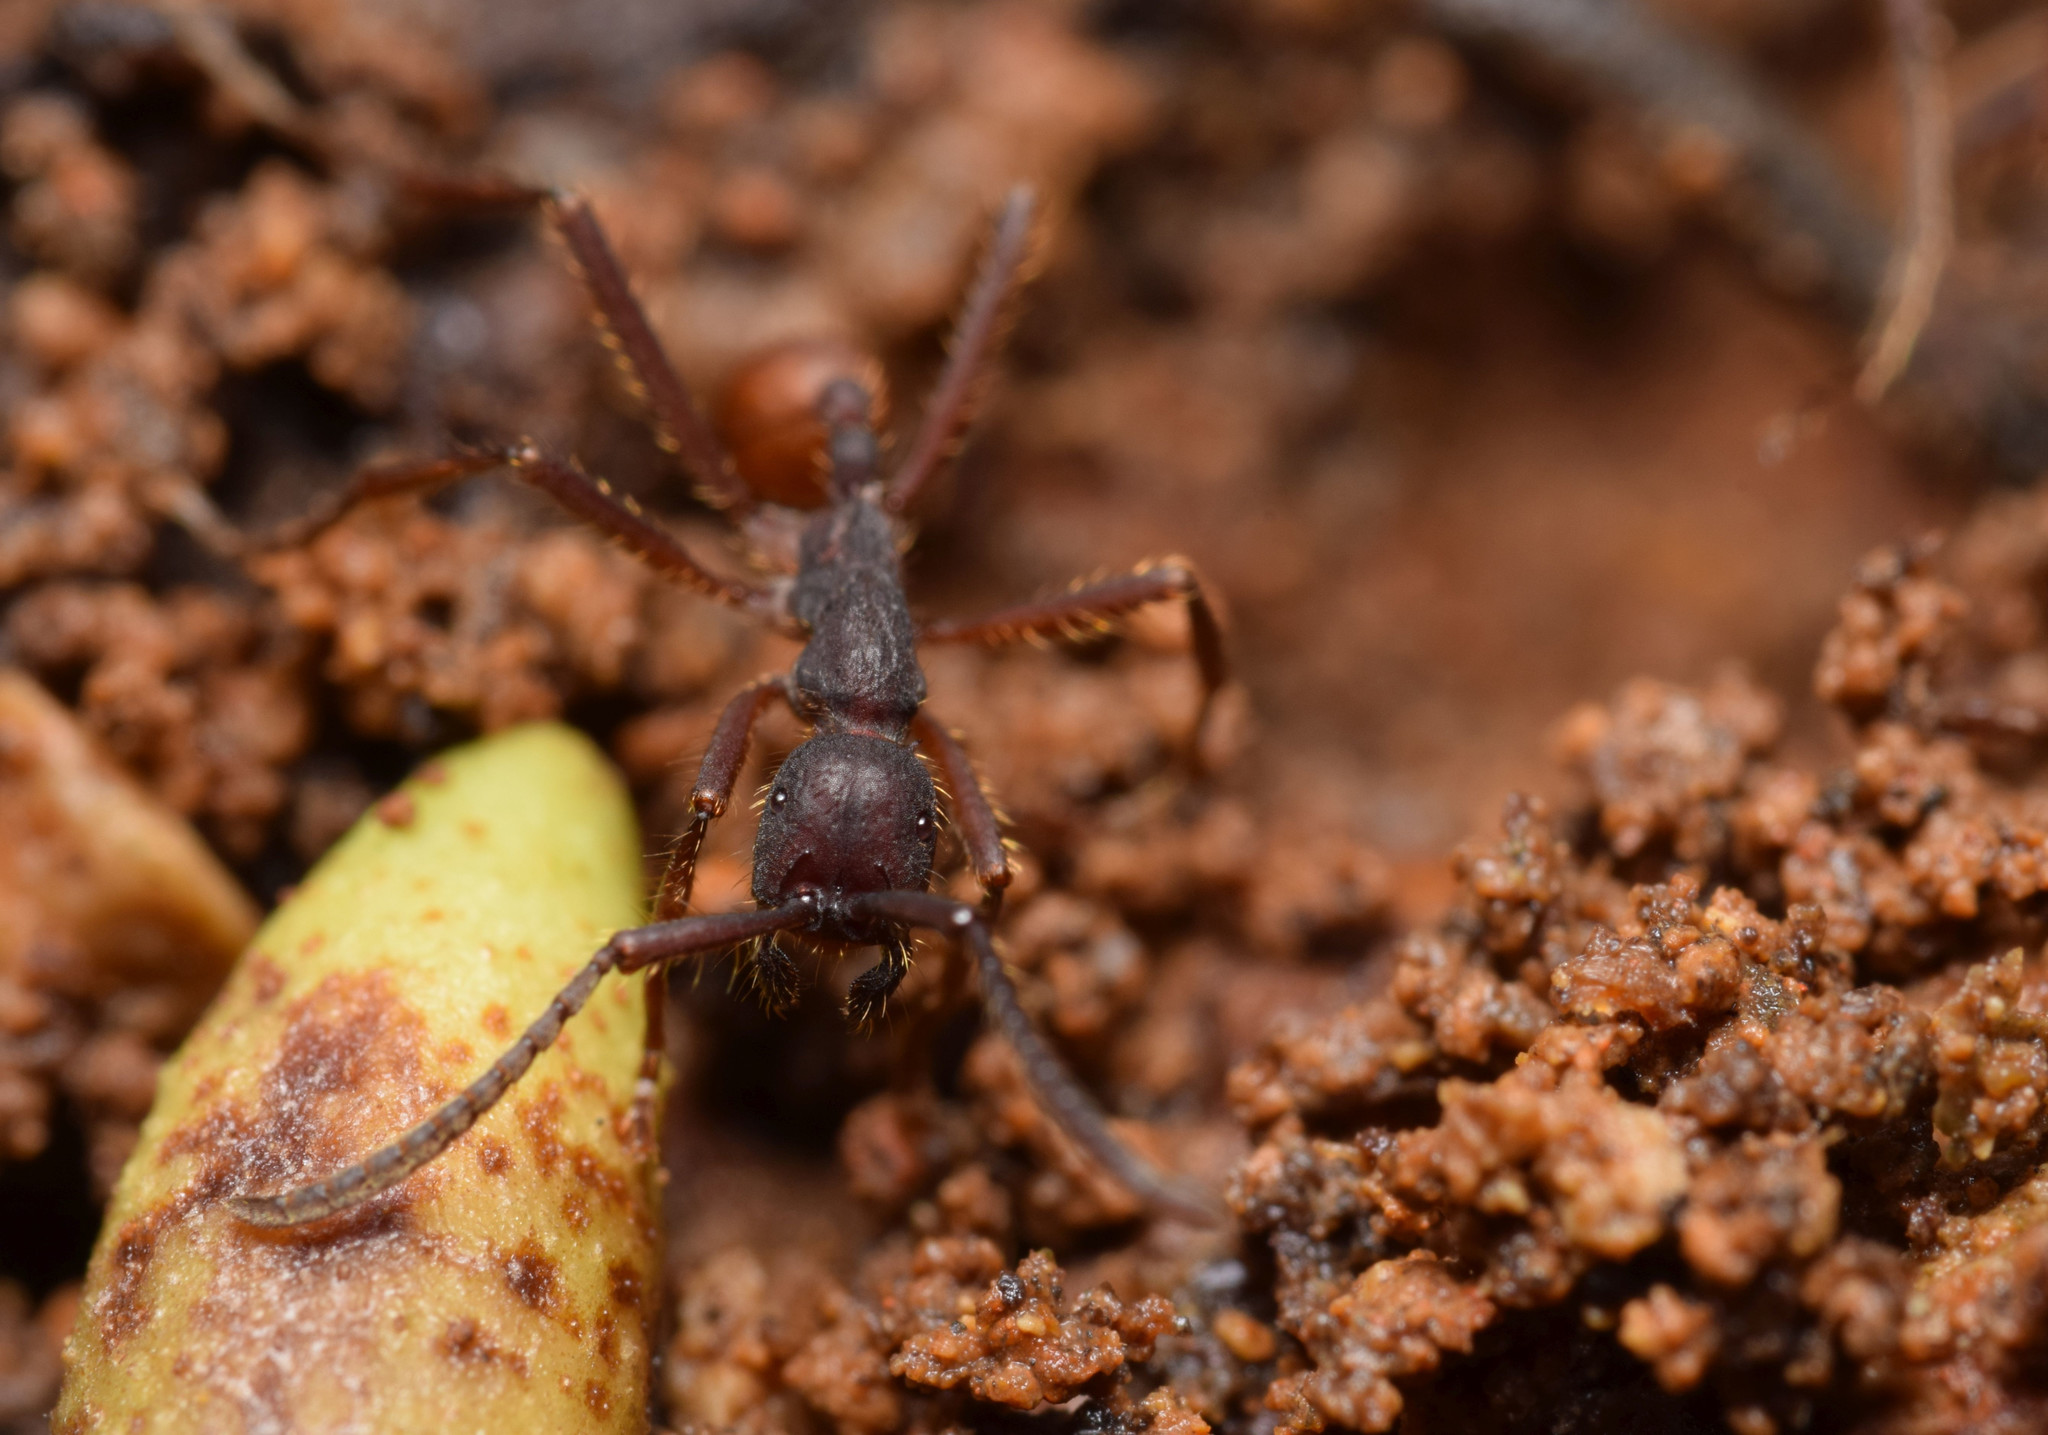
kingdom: Animalia
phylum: Arthropoda
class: Insecta
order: Hymenoptera
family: Formicidae
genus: Eciton
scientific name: Eciton mexicanum
